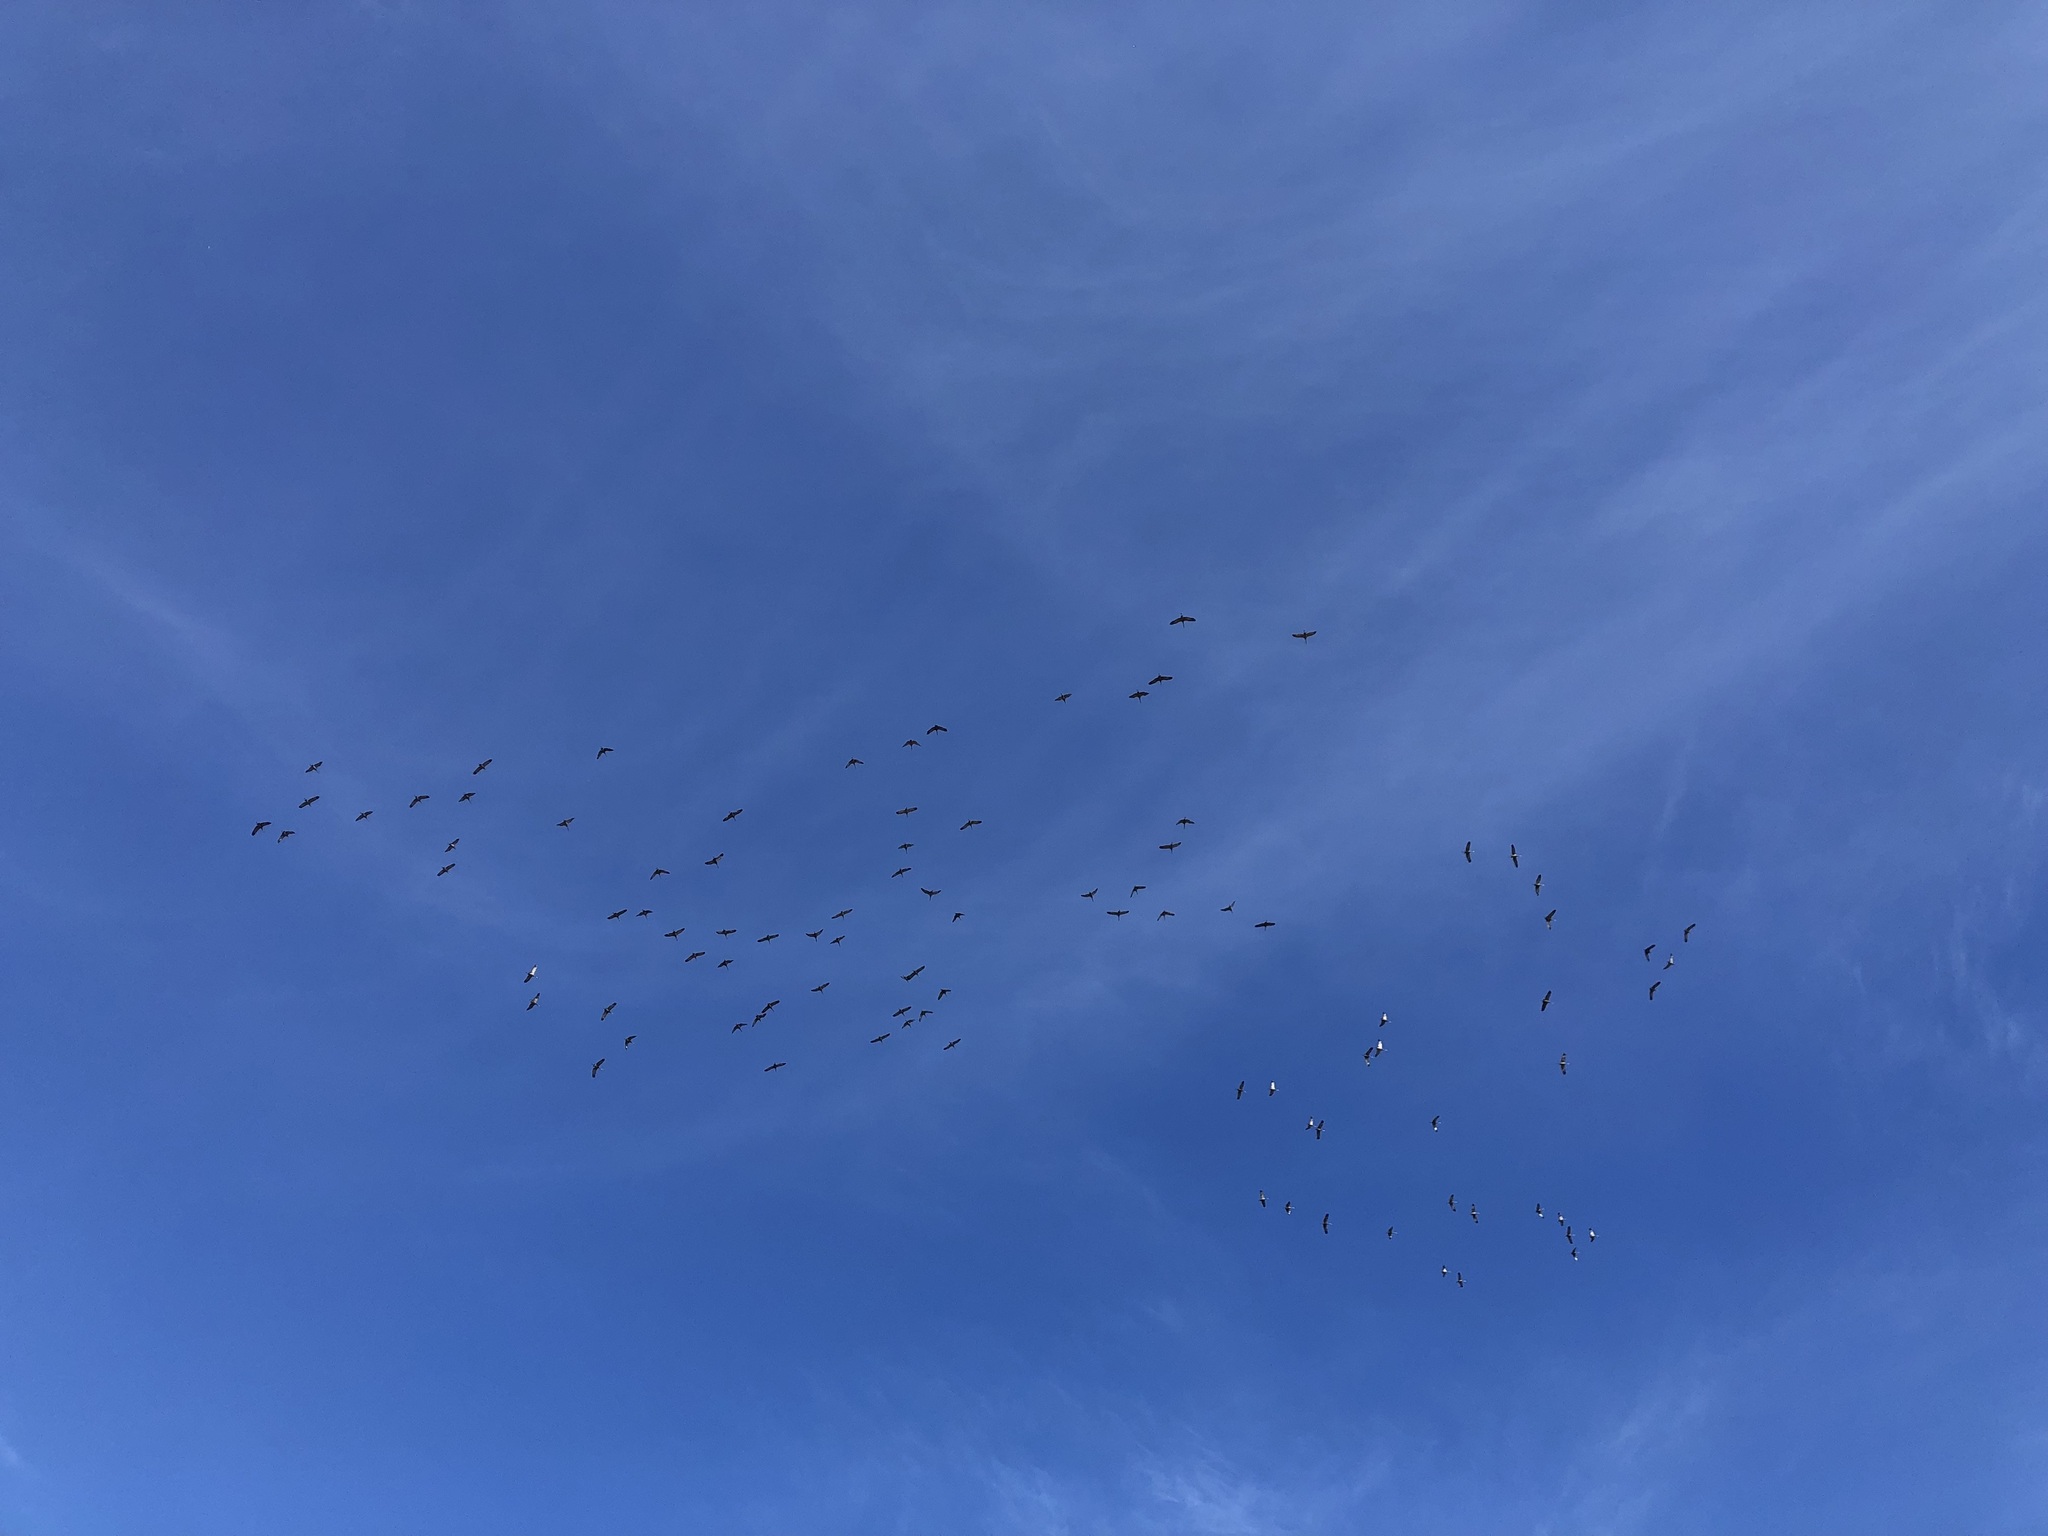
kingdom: Animalia
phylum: Chordata
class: Aves
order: Gruiformes
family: Gruidae
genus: Grus
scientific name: Grus canadensis
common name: Sandhill crane
